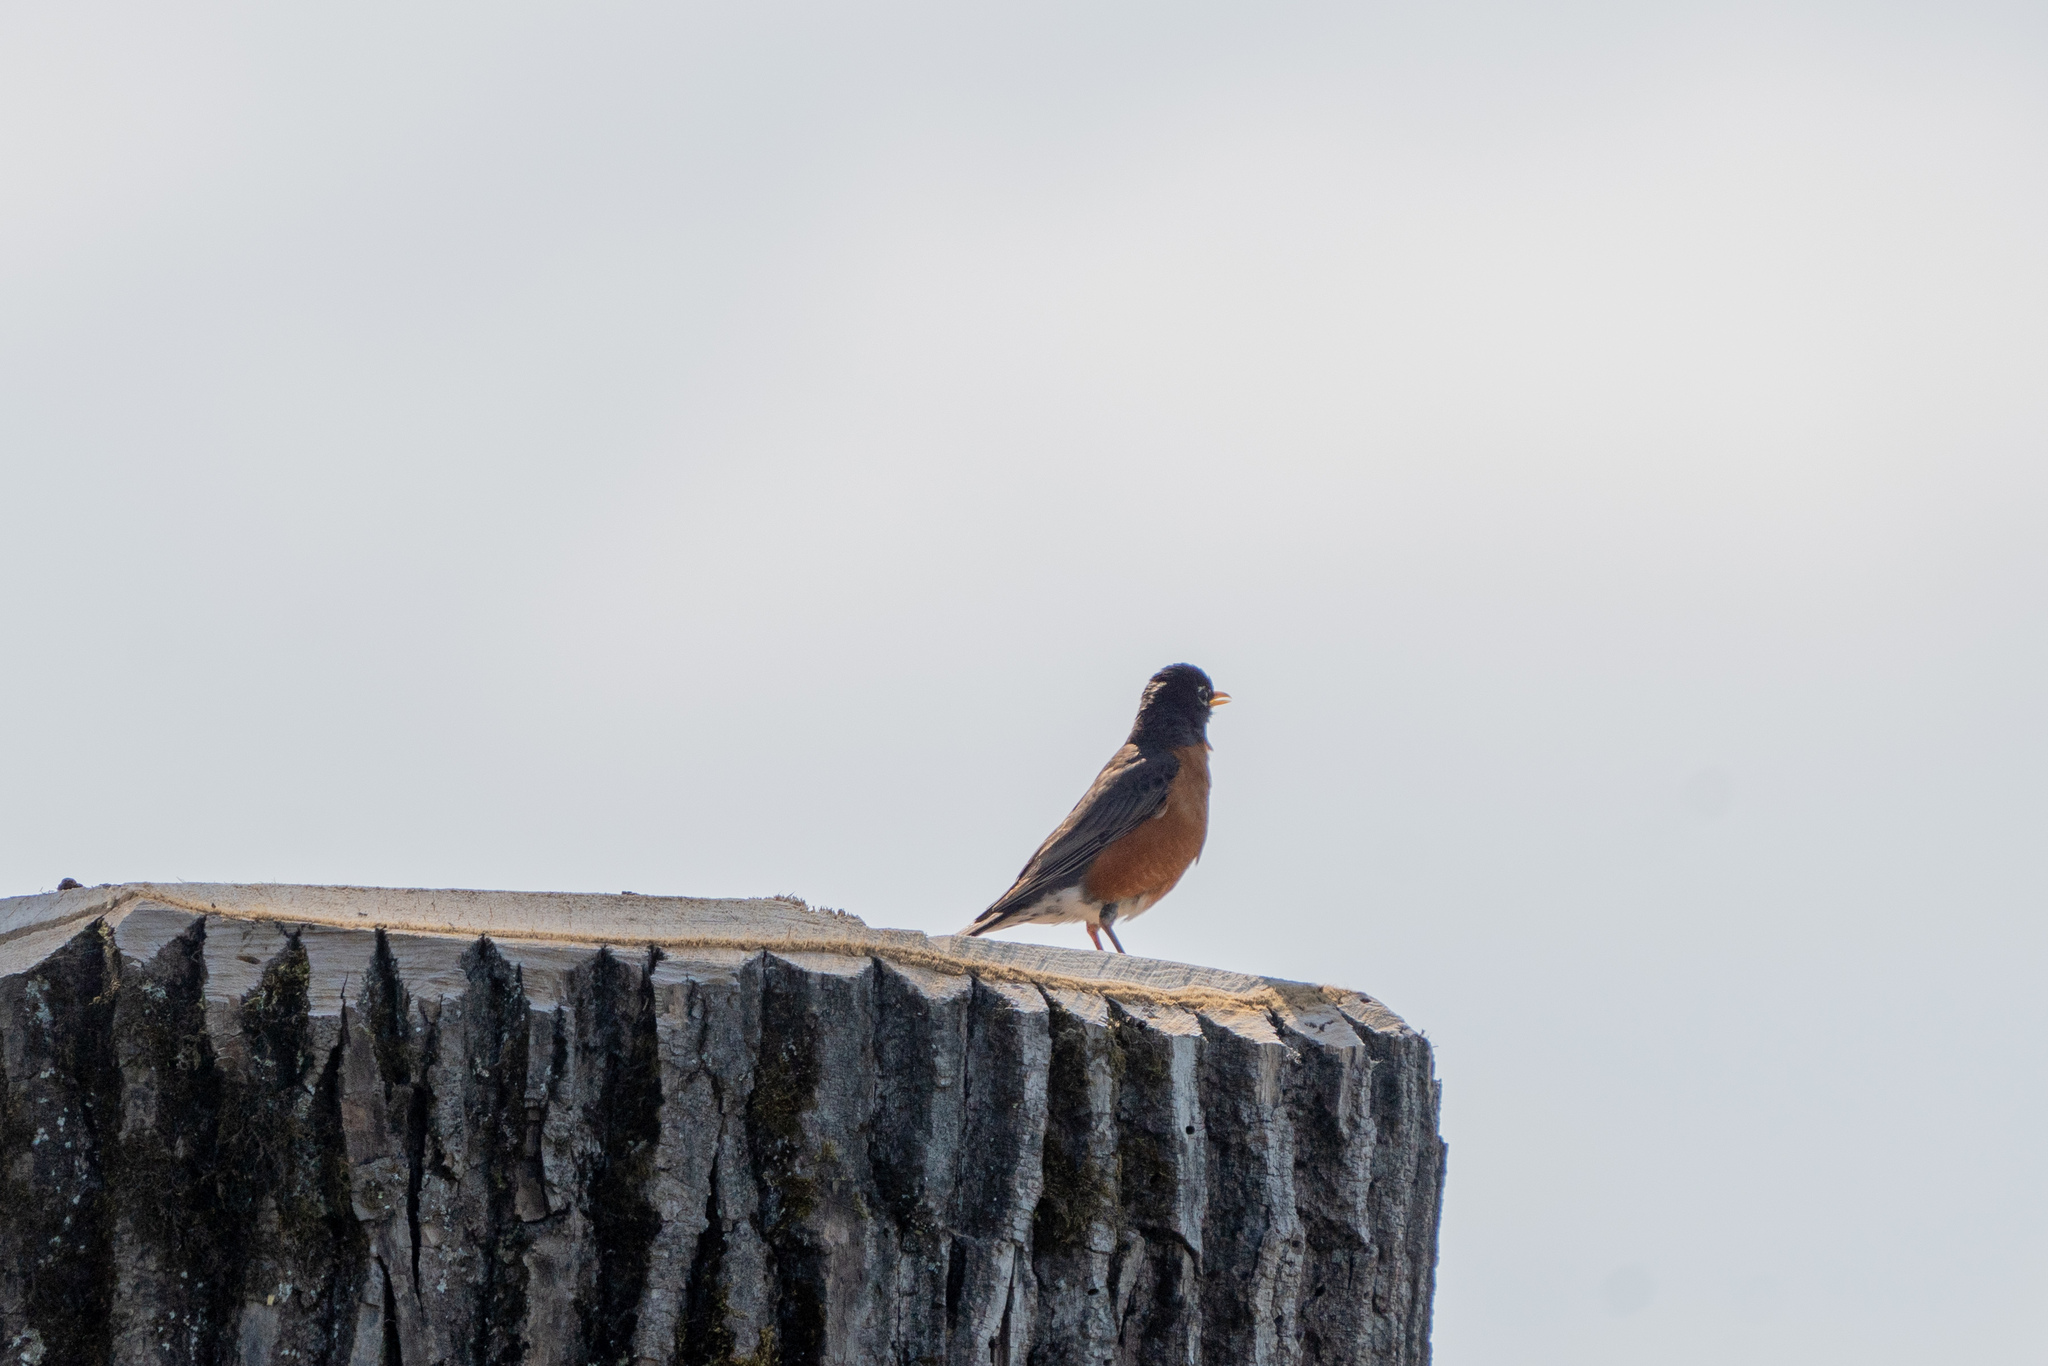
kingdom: Animalia
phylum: Chordata
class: Aves
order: Passeriformes
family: Turdidae
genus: Turdus
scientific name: Turdus migratorius
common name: American robin
